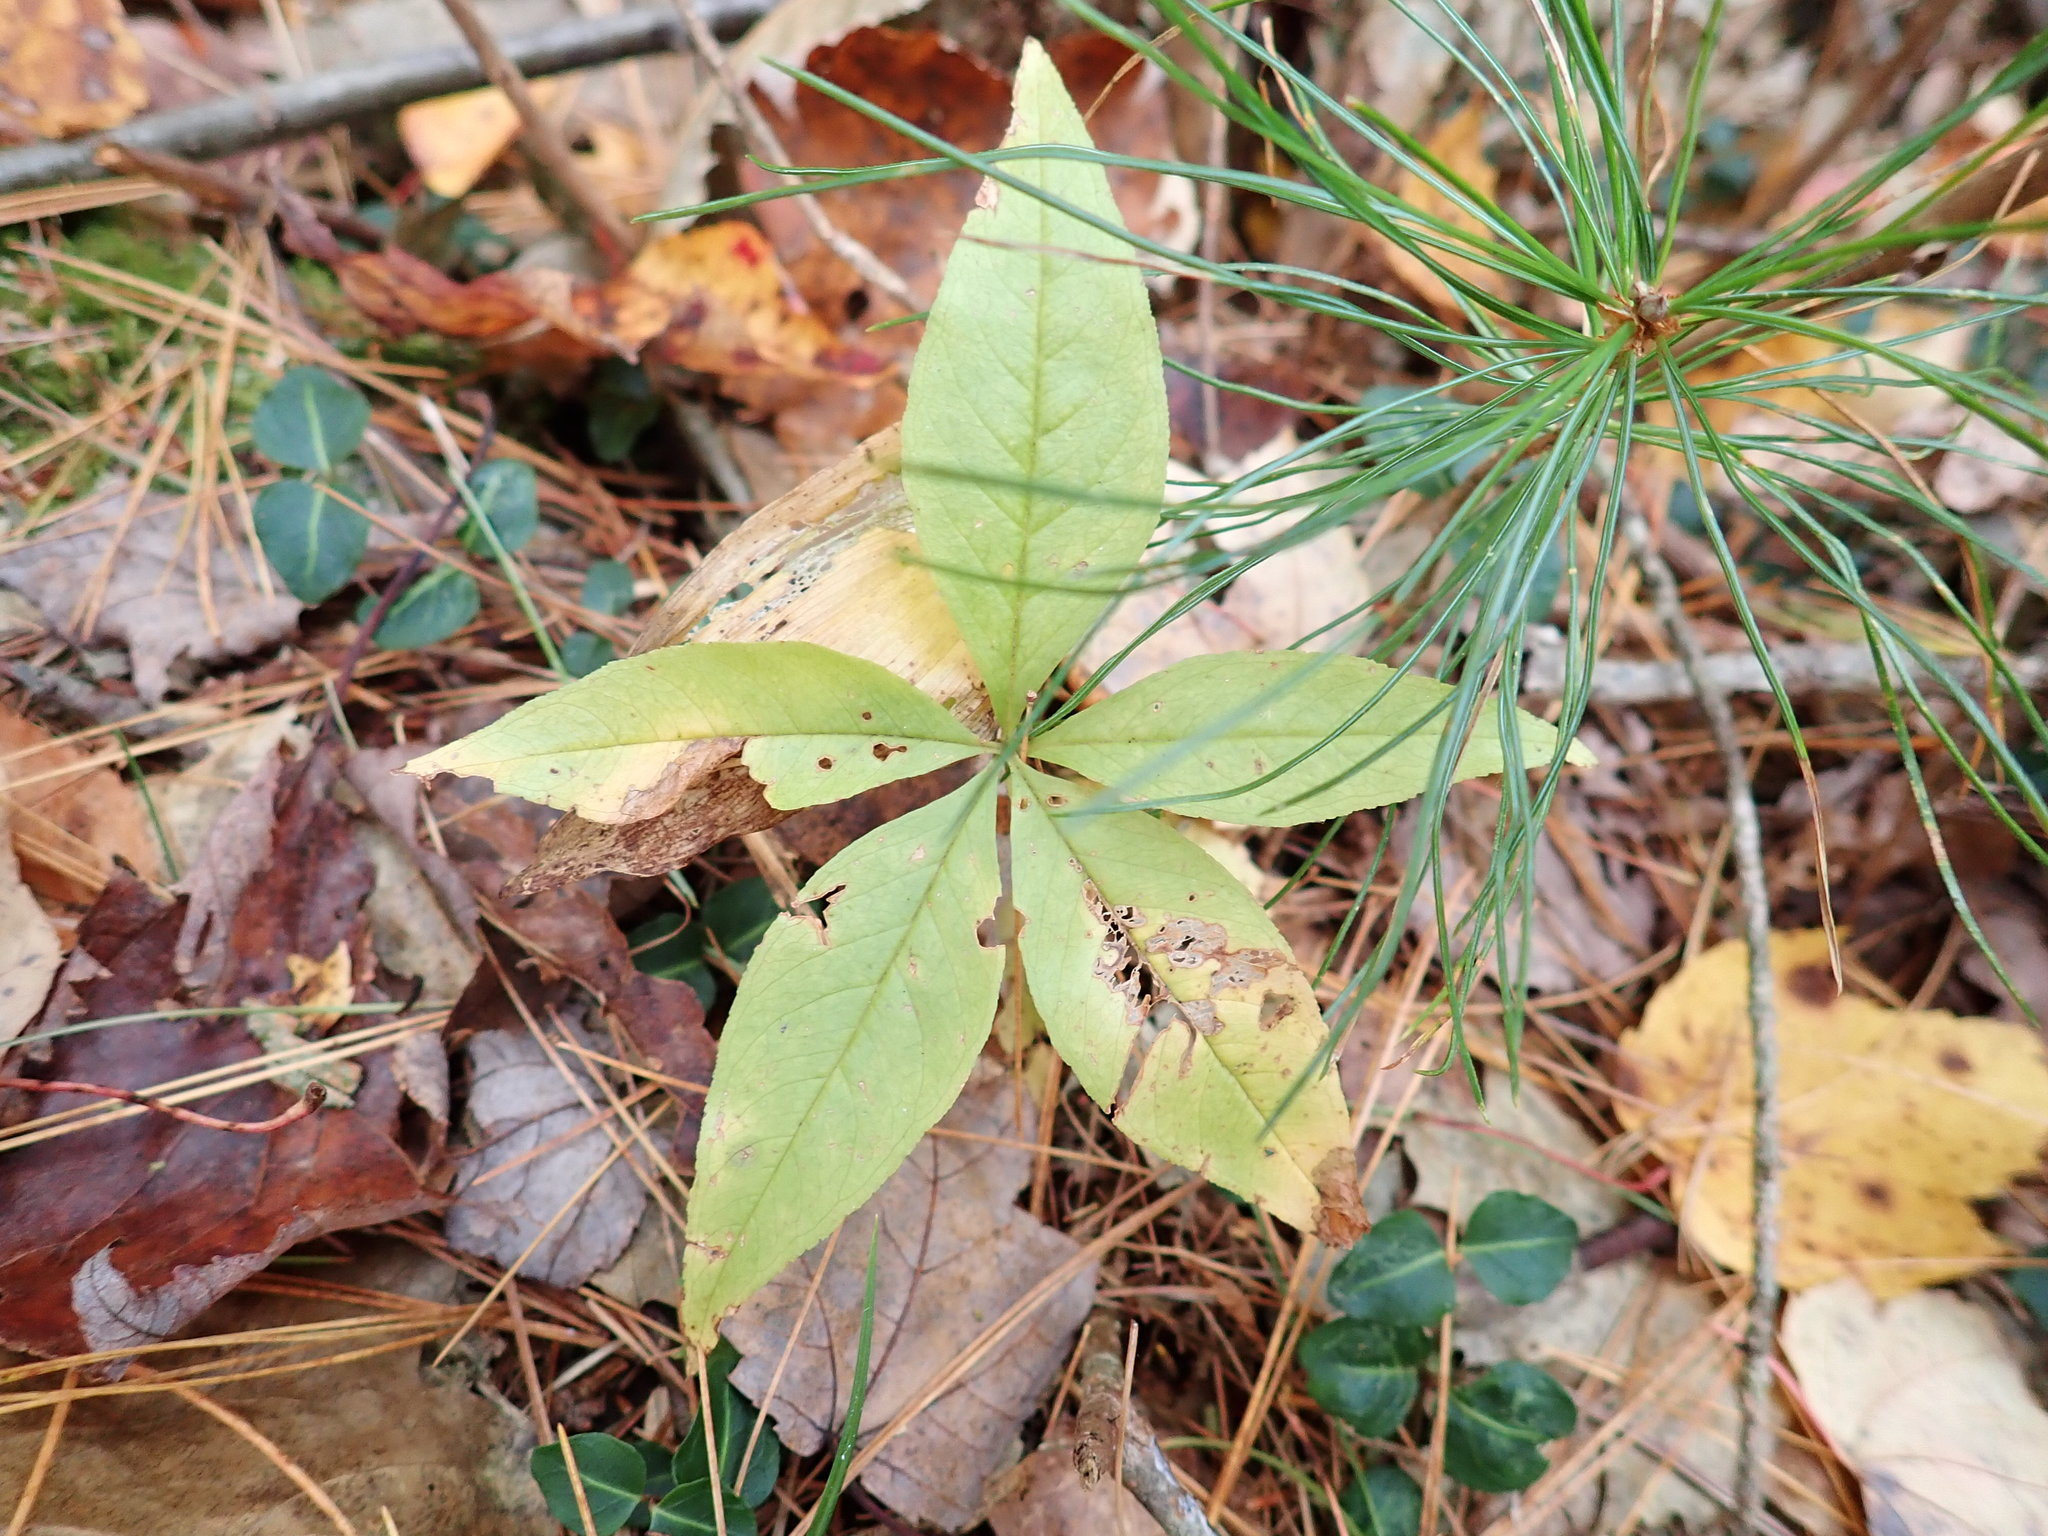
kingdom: Plantae
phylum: Tracheophyta
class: Magnoliopsida
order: Ericales
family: Primulaceae
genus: Lysimachia
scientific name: Lysimachia borealis
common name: American starflower
